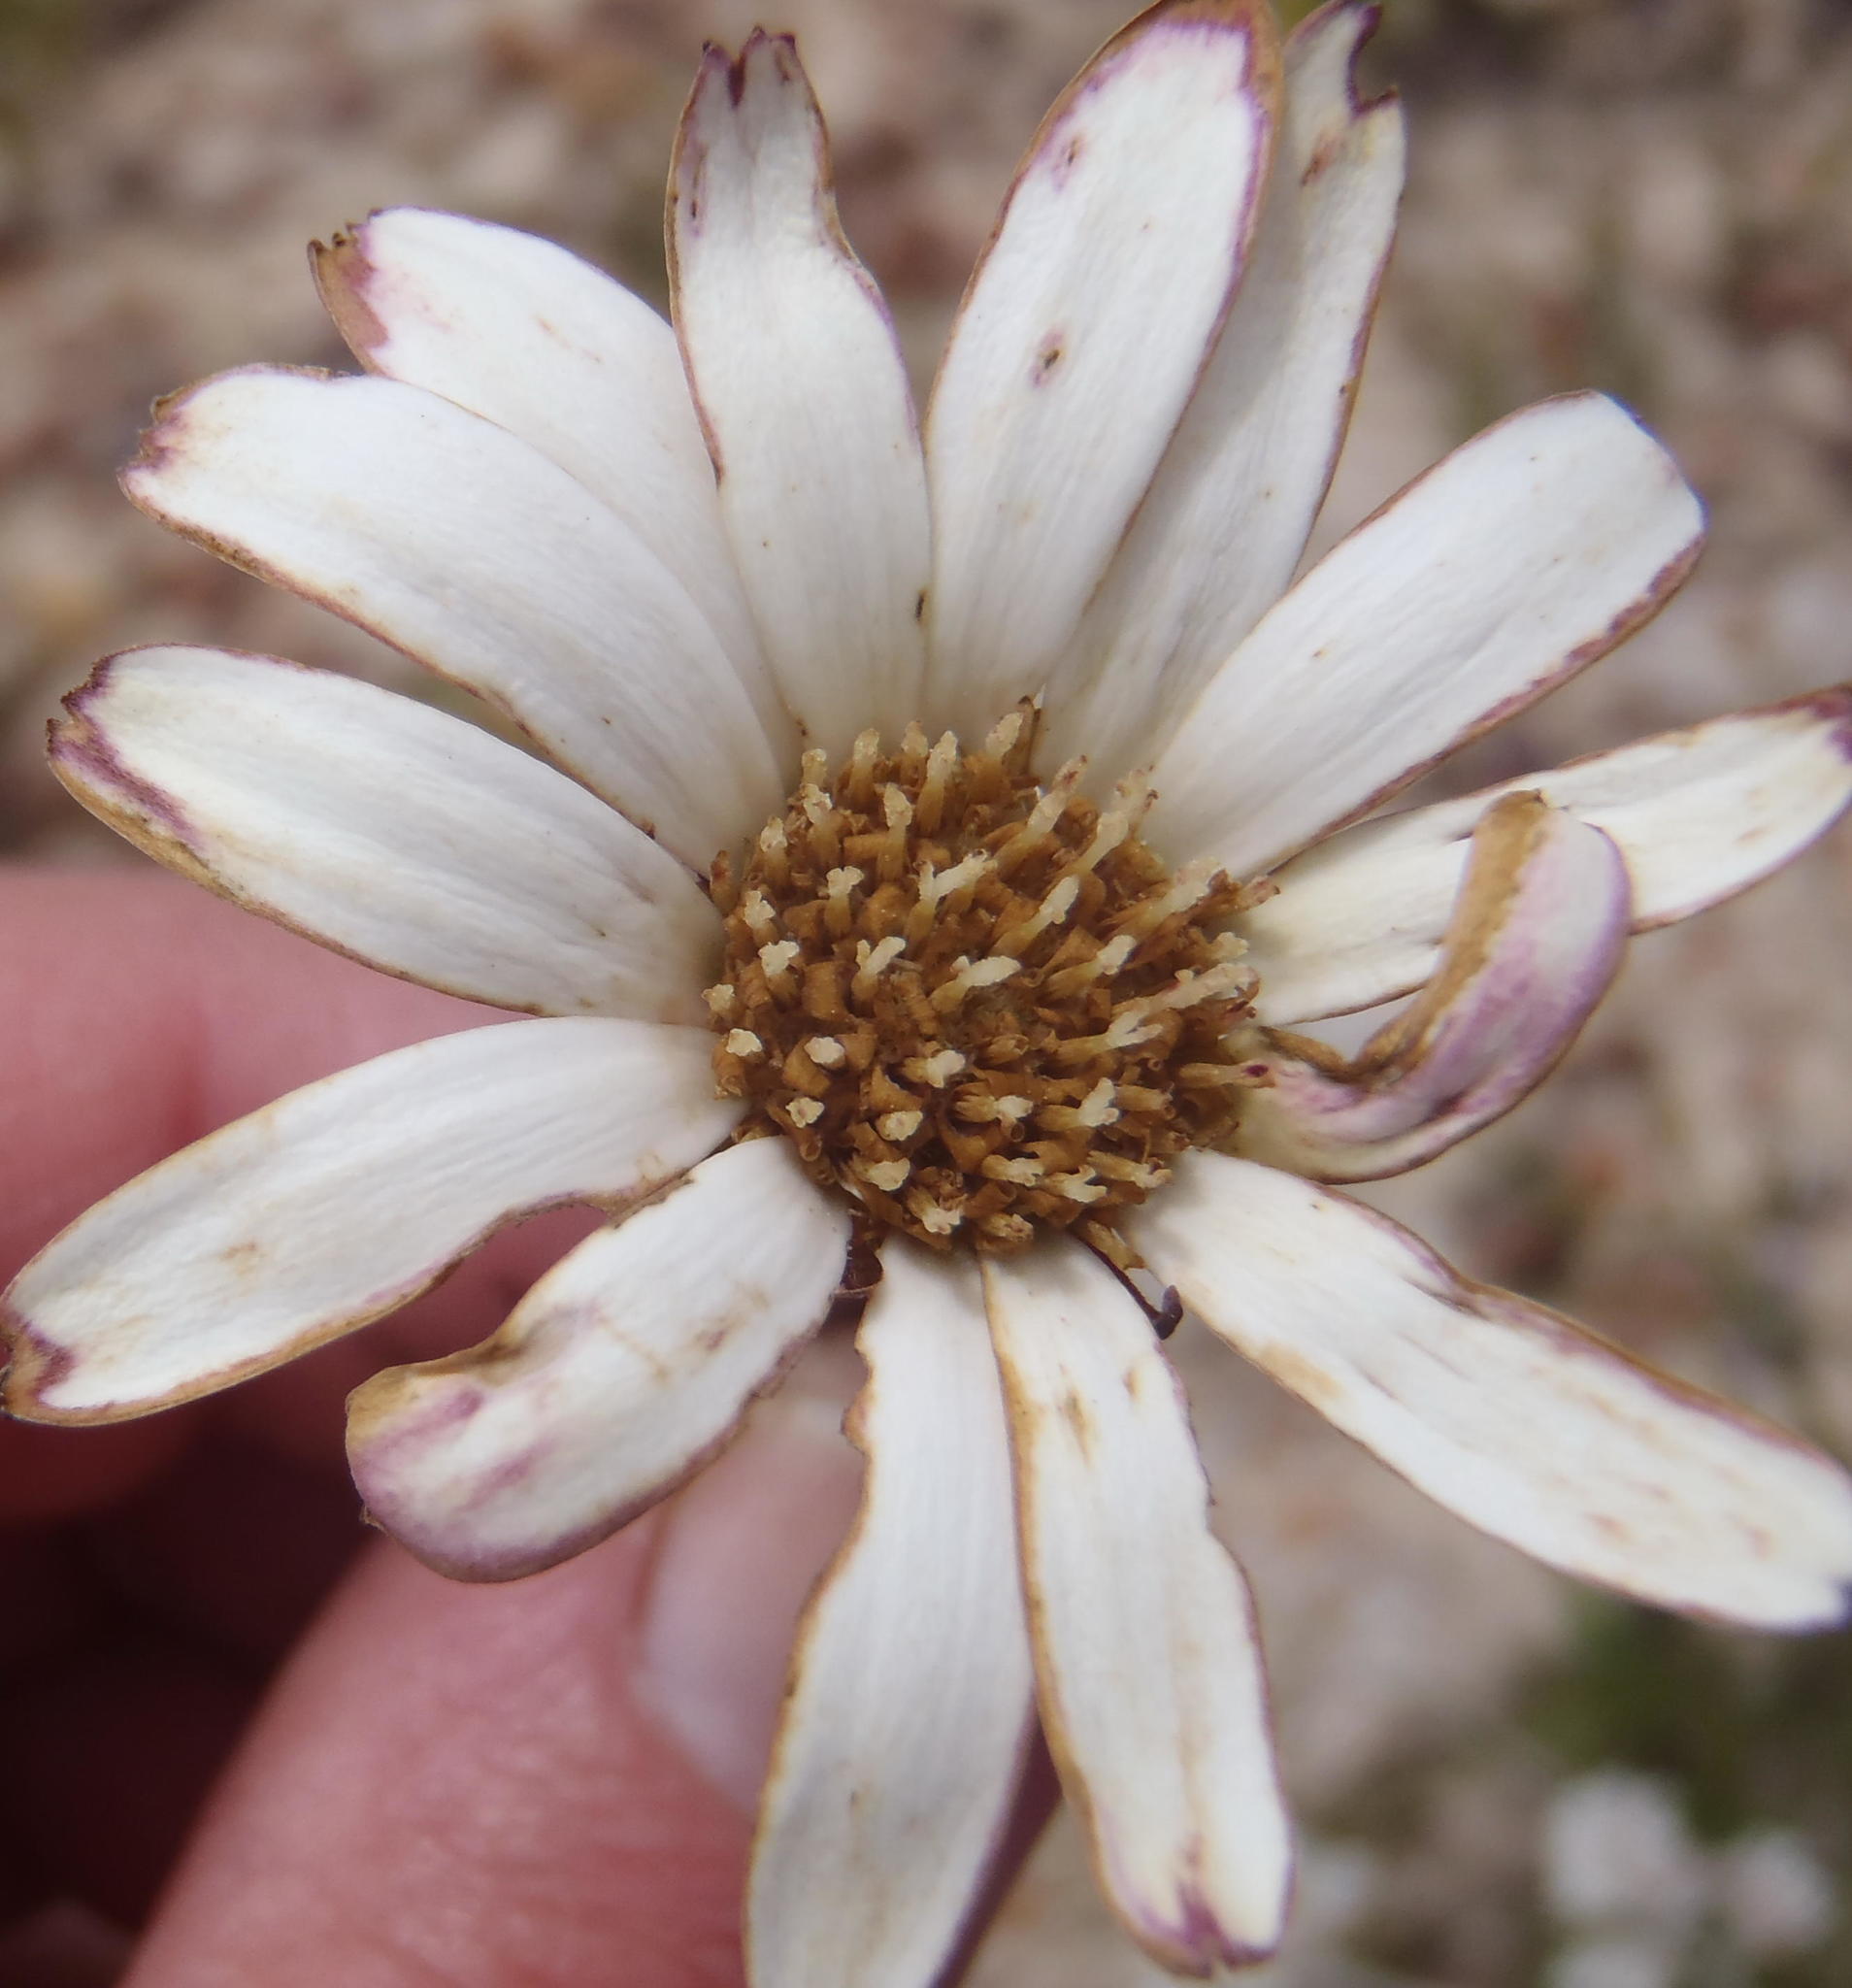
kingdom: Plantae
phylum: Tracheophyta
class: Magnoliopsida
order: Asterales
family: Asteraceae
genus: Gerbera
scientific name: Gerbera serrata
